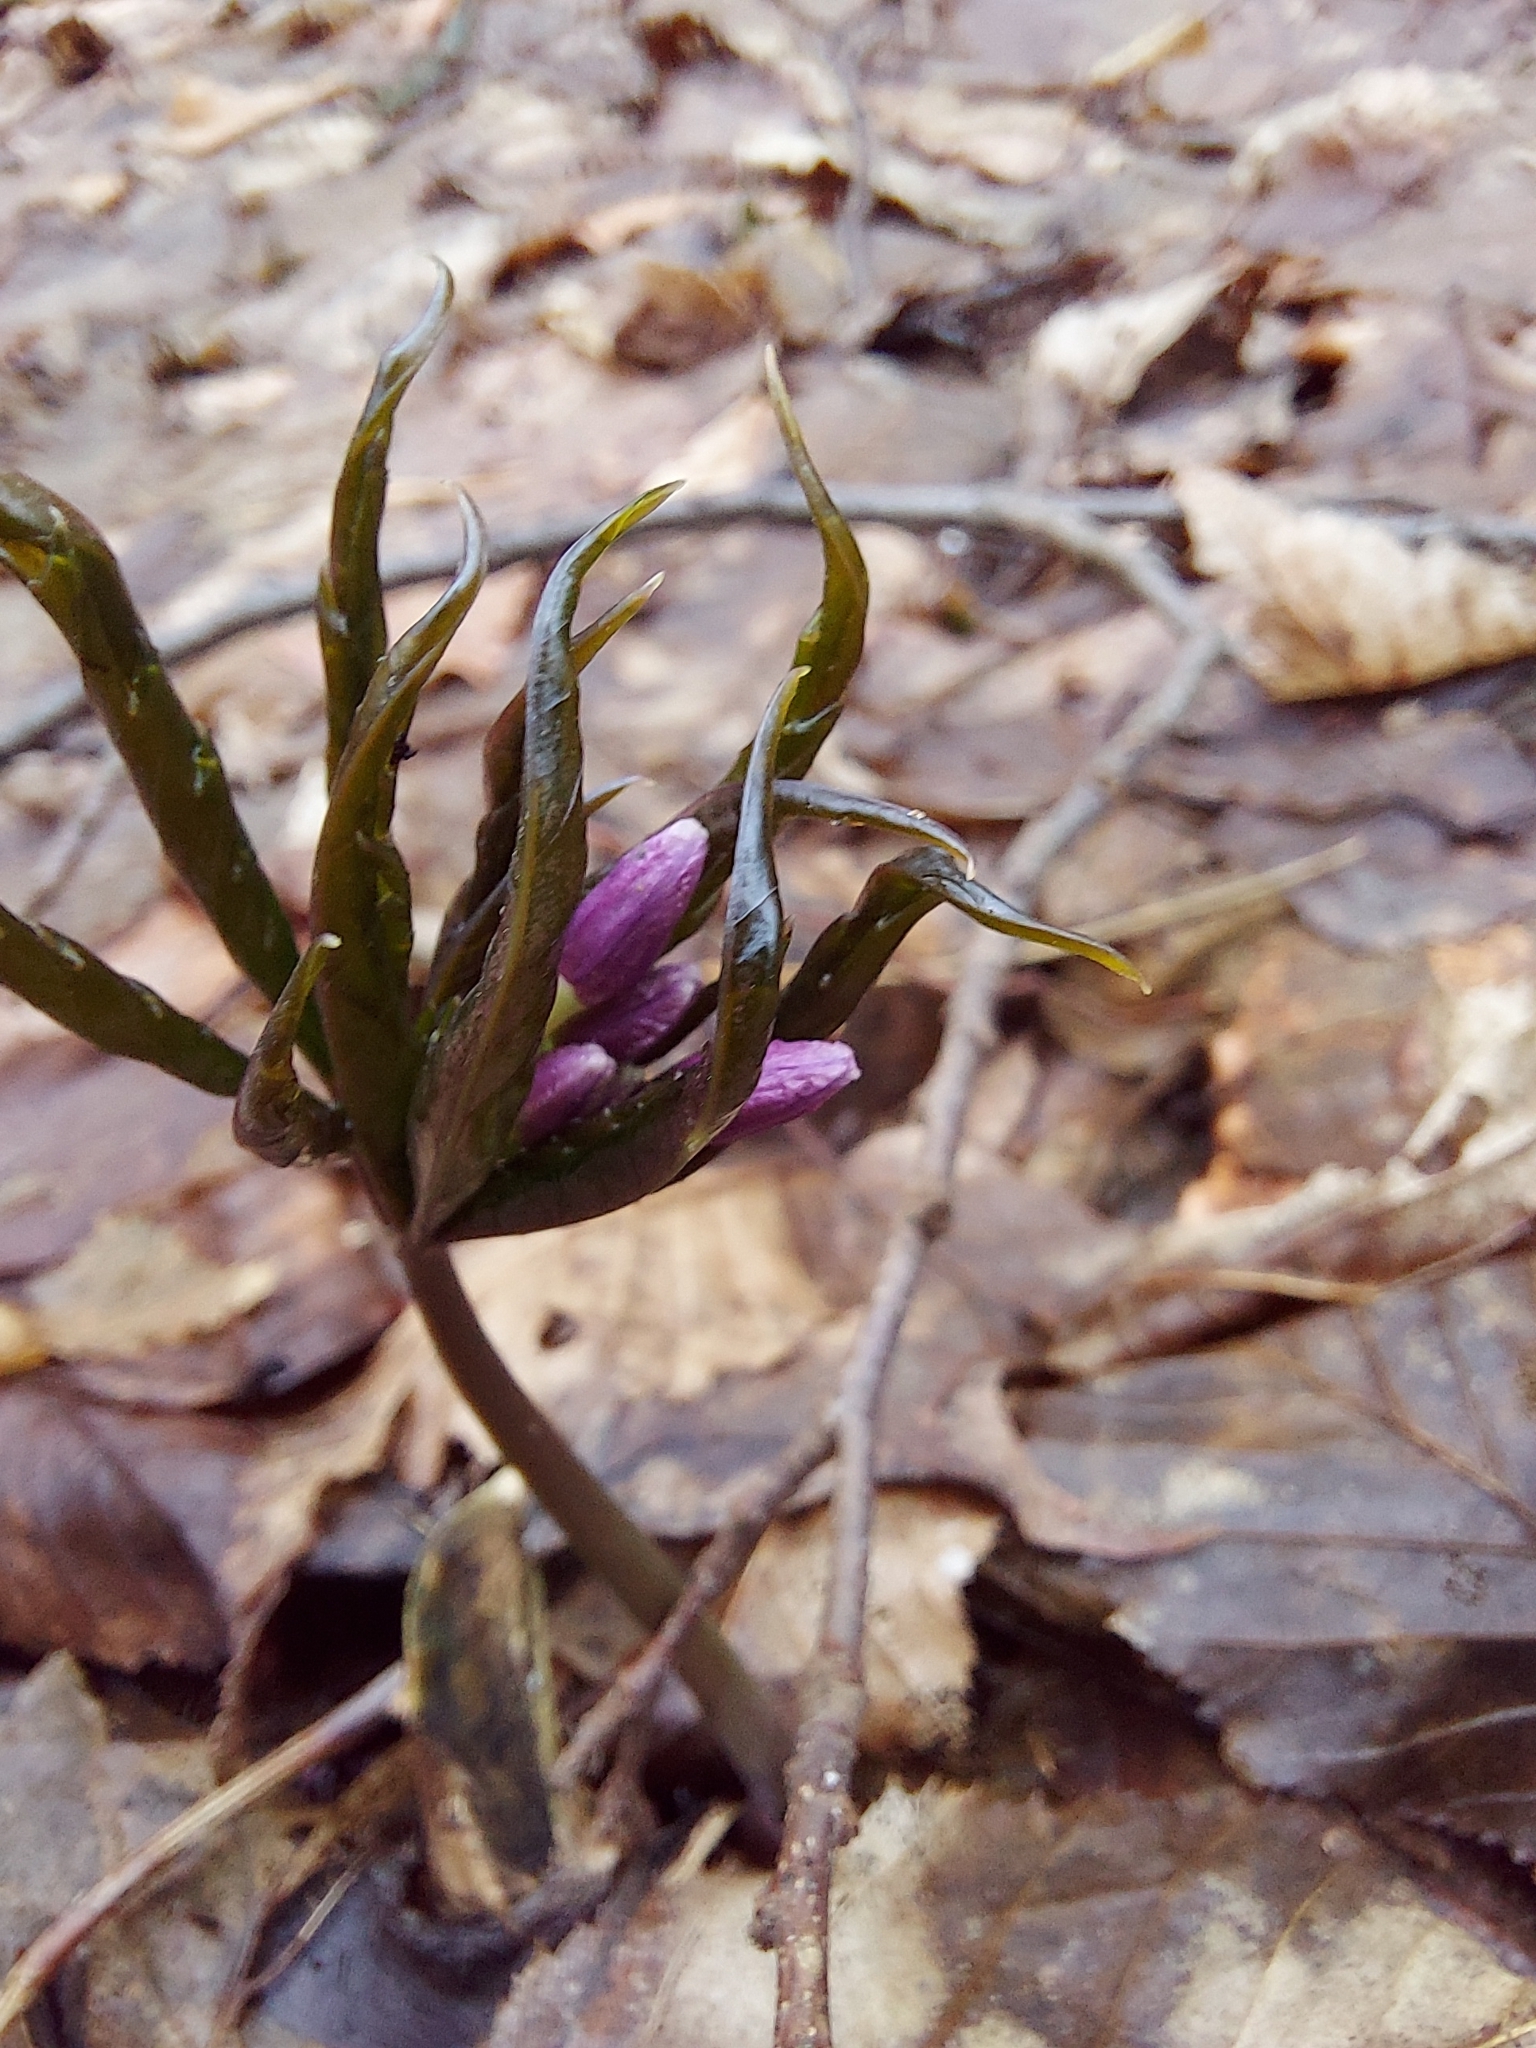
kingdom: Plantae
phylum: Tracheophyta
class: Magnoliopsida
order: Brassicales
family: Brassicaceae
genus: Cardamine
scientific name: Cardamine glanduligera
